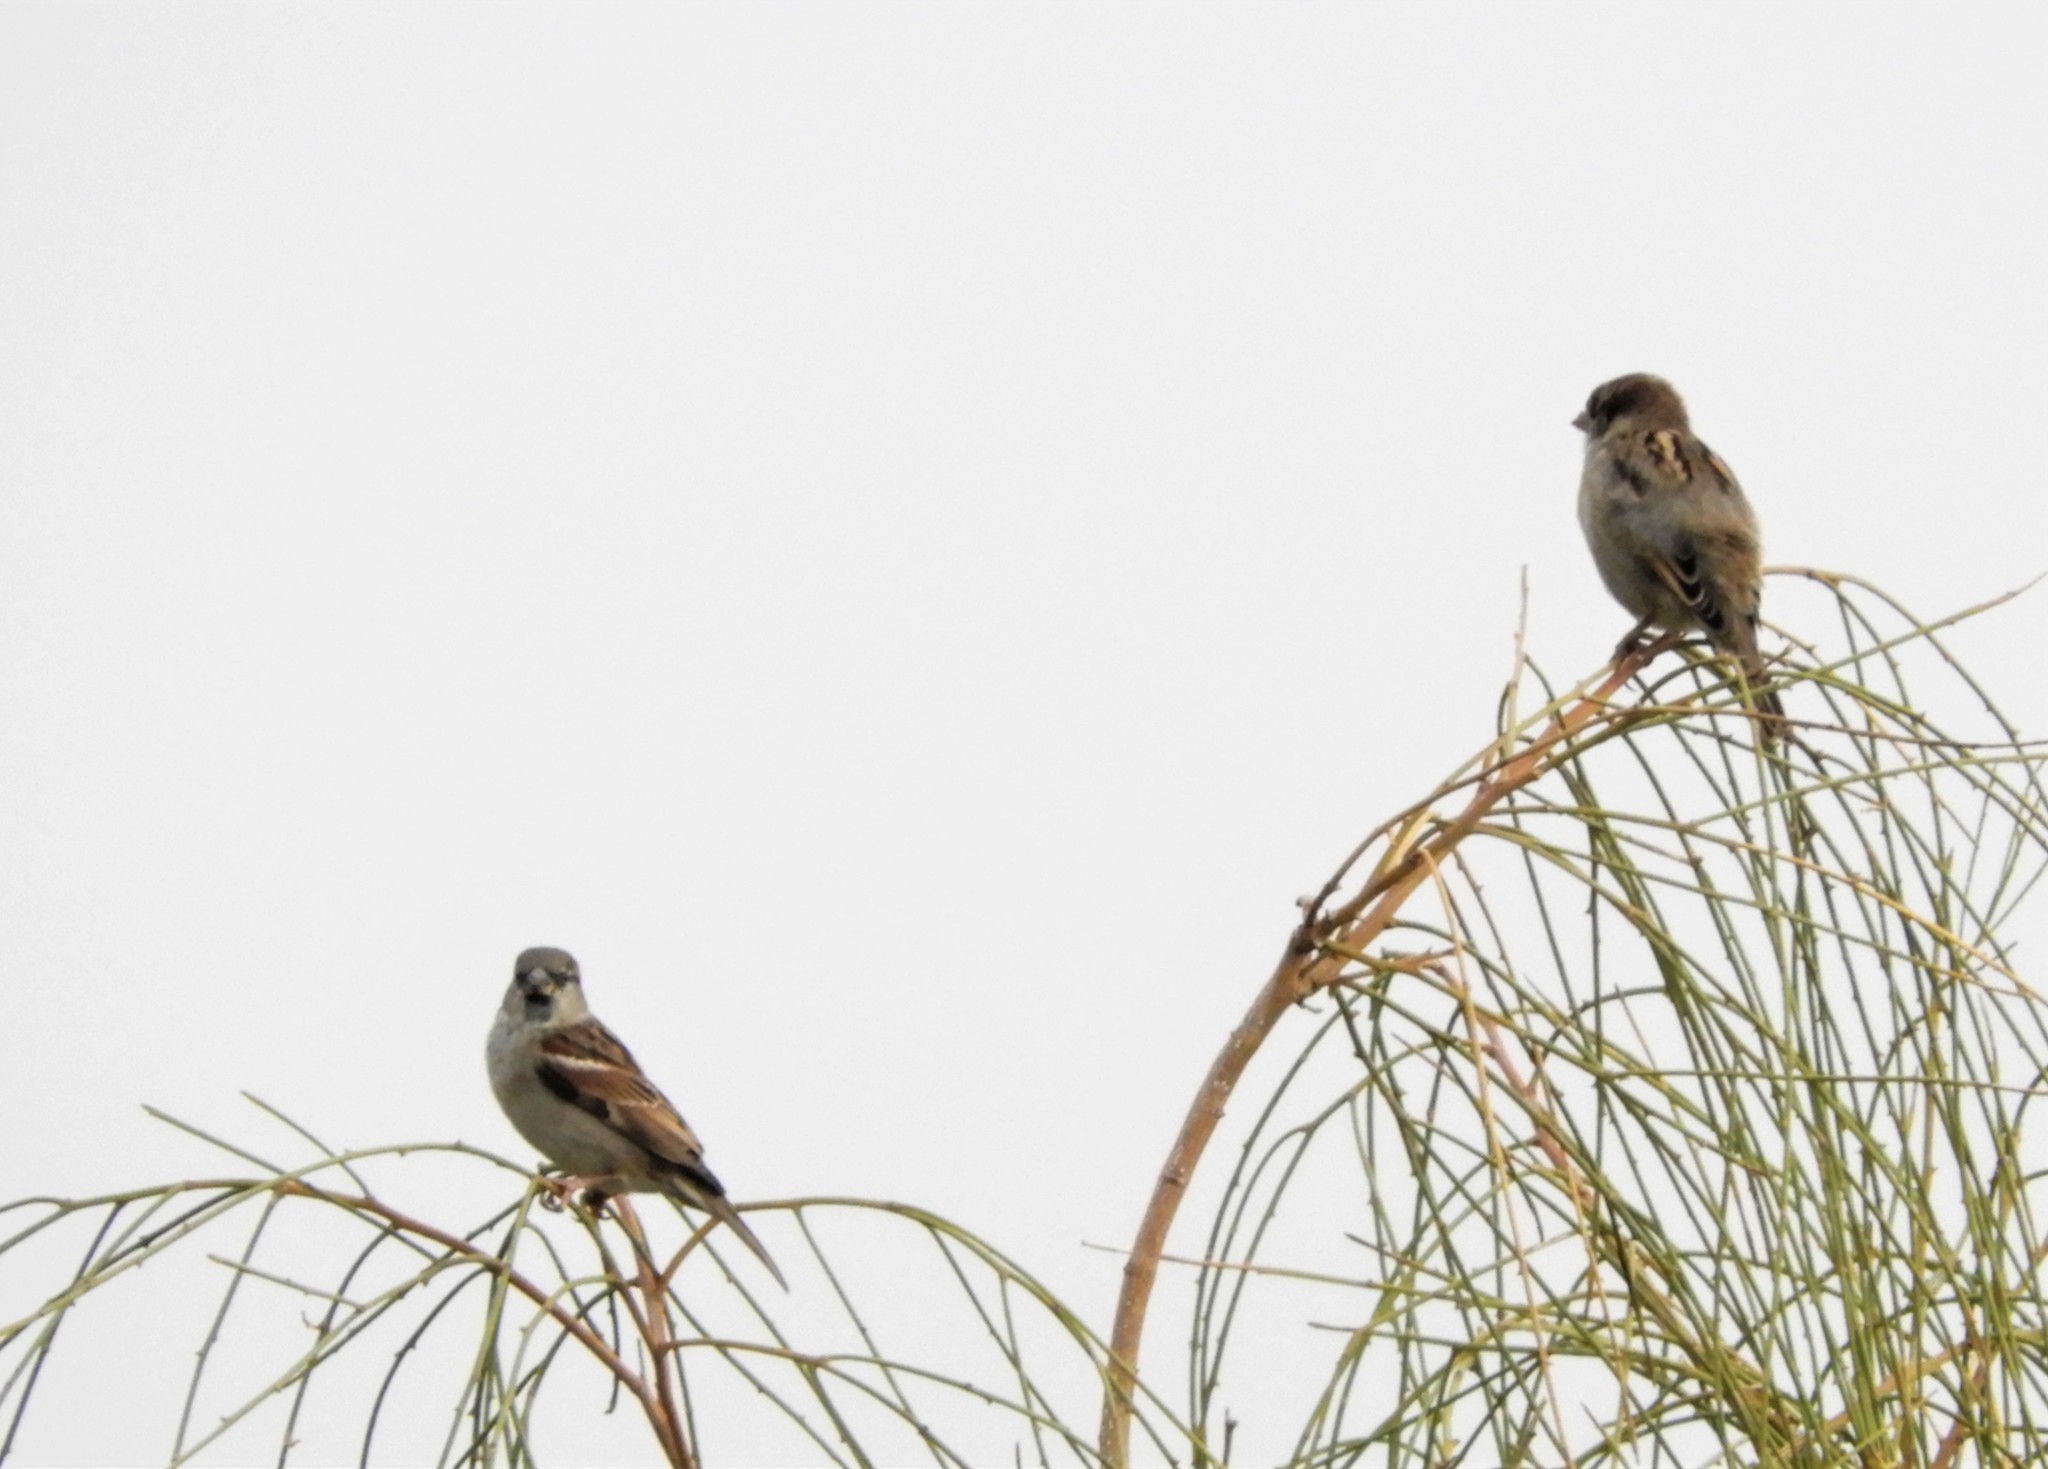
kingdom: Animalia
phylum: Chordata
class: Aves
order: Passeriformes
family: Passeridae
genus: Passer
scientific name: Passer domesticus
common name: House sparrow
